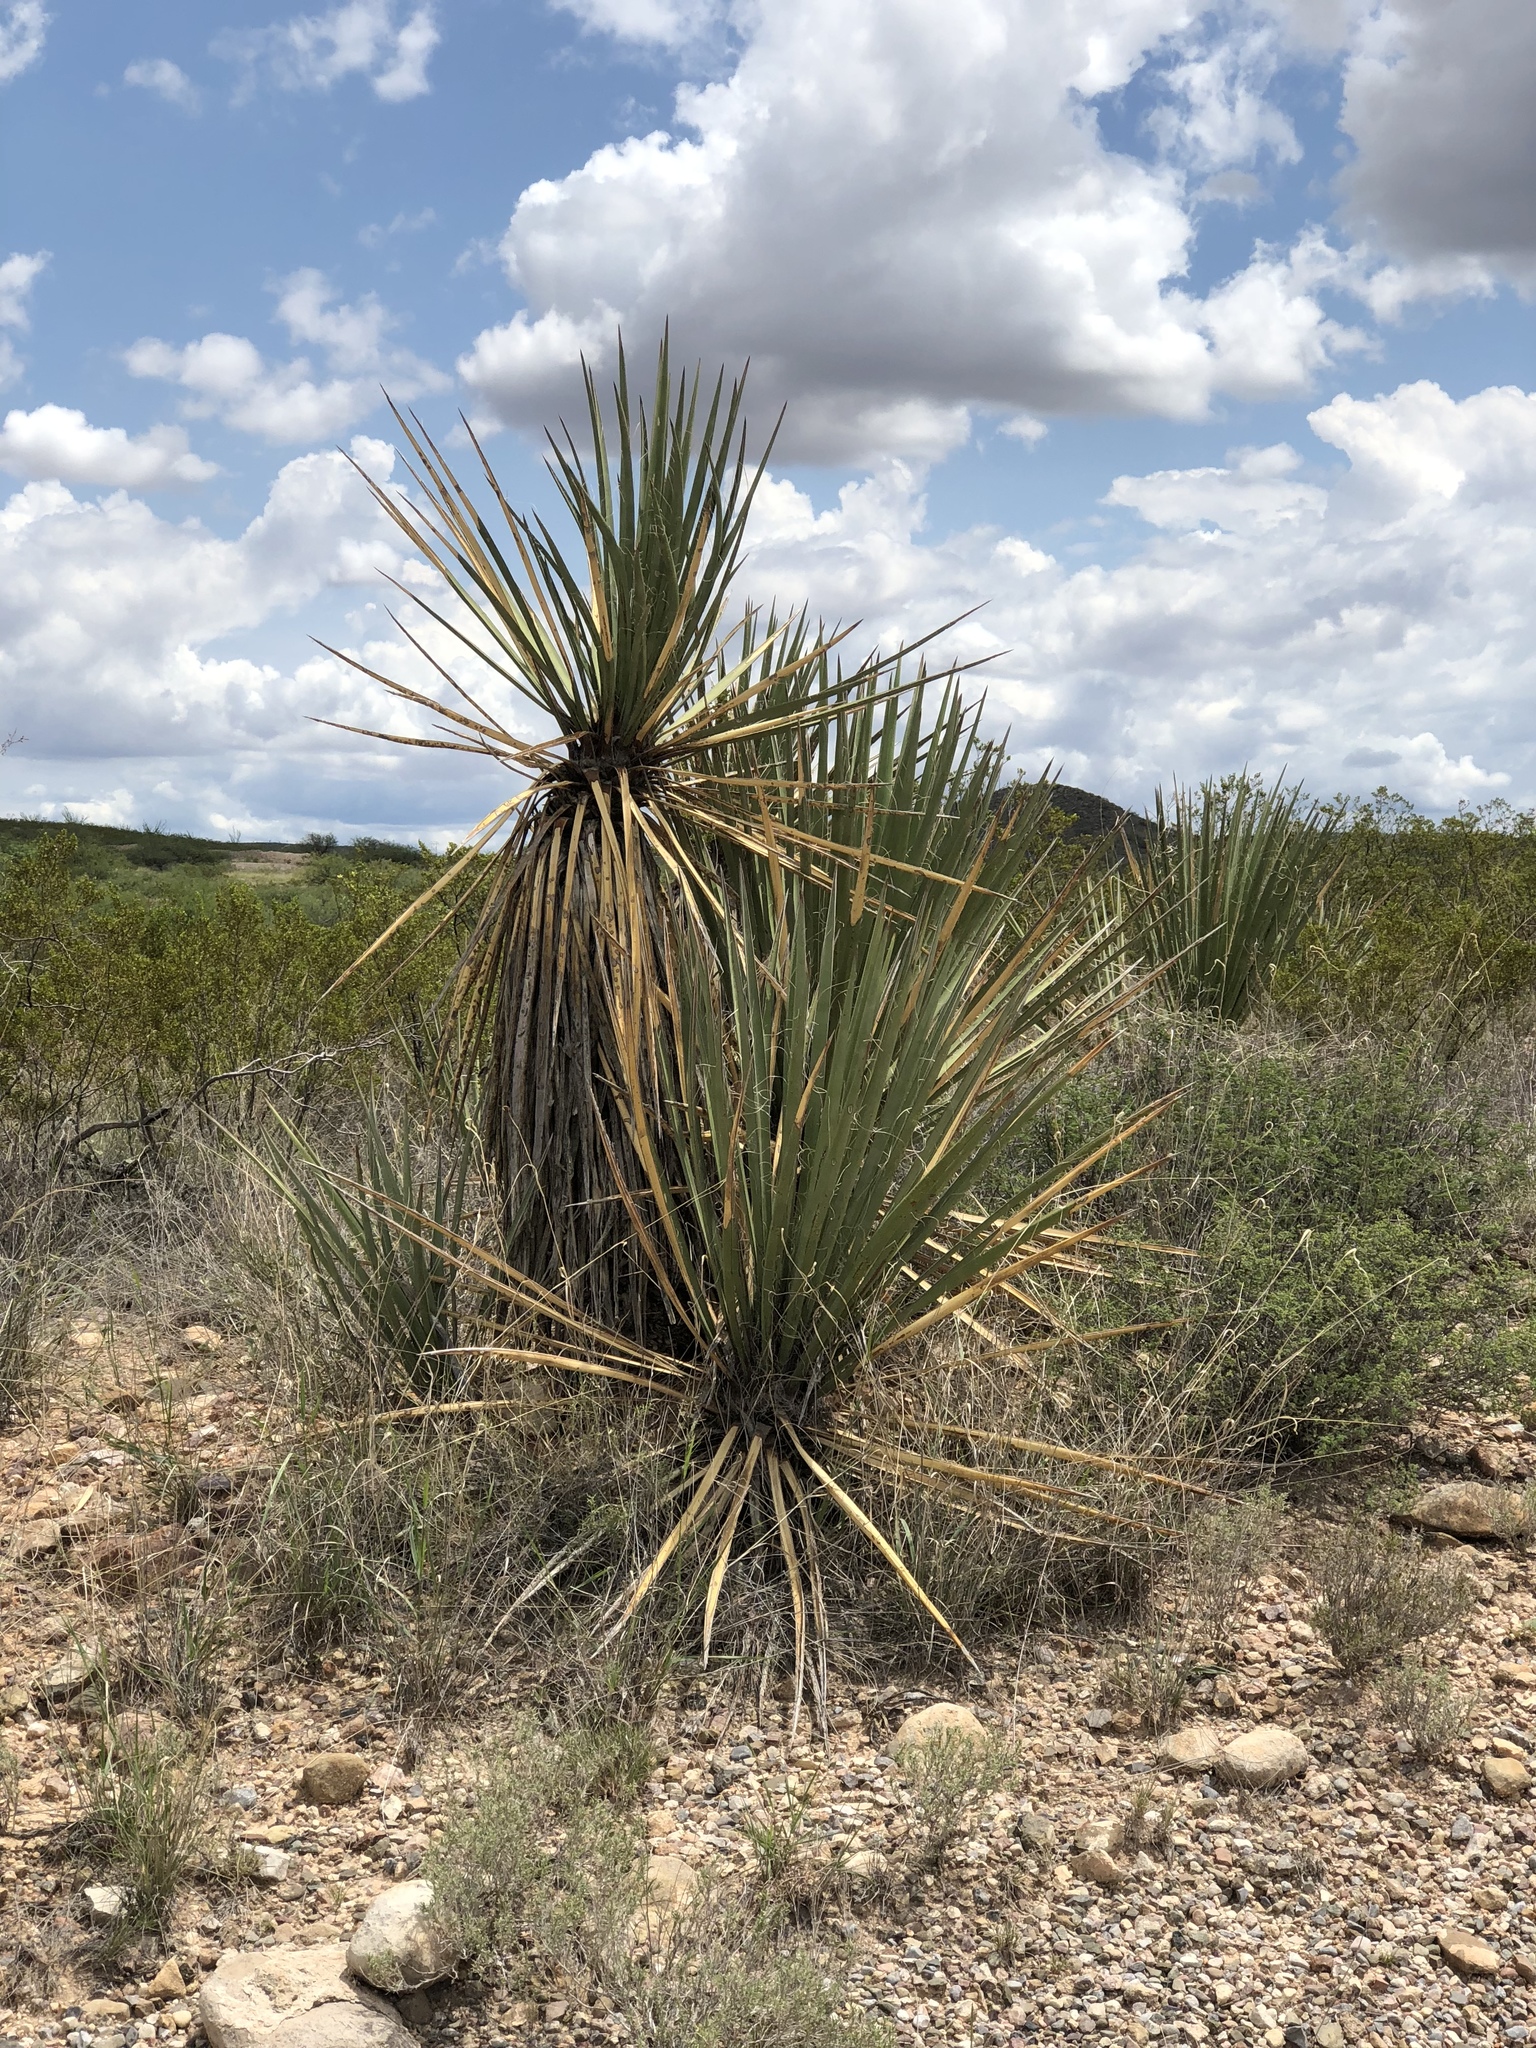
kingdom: Plantae
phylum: Tracheophyta
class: Liliopsida
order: Asparagales
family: Asparagaceae
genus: Yucca
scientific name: Yucca baccata
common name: Banana yucca
